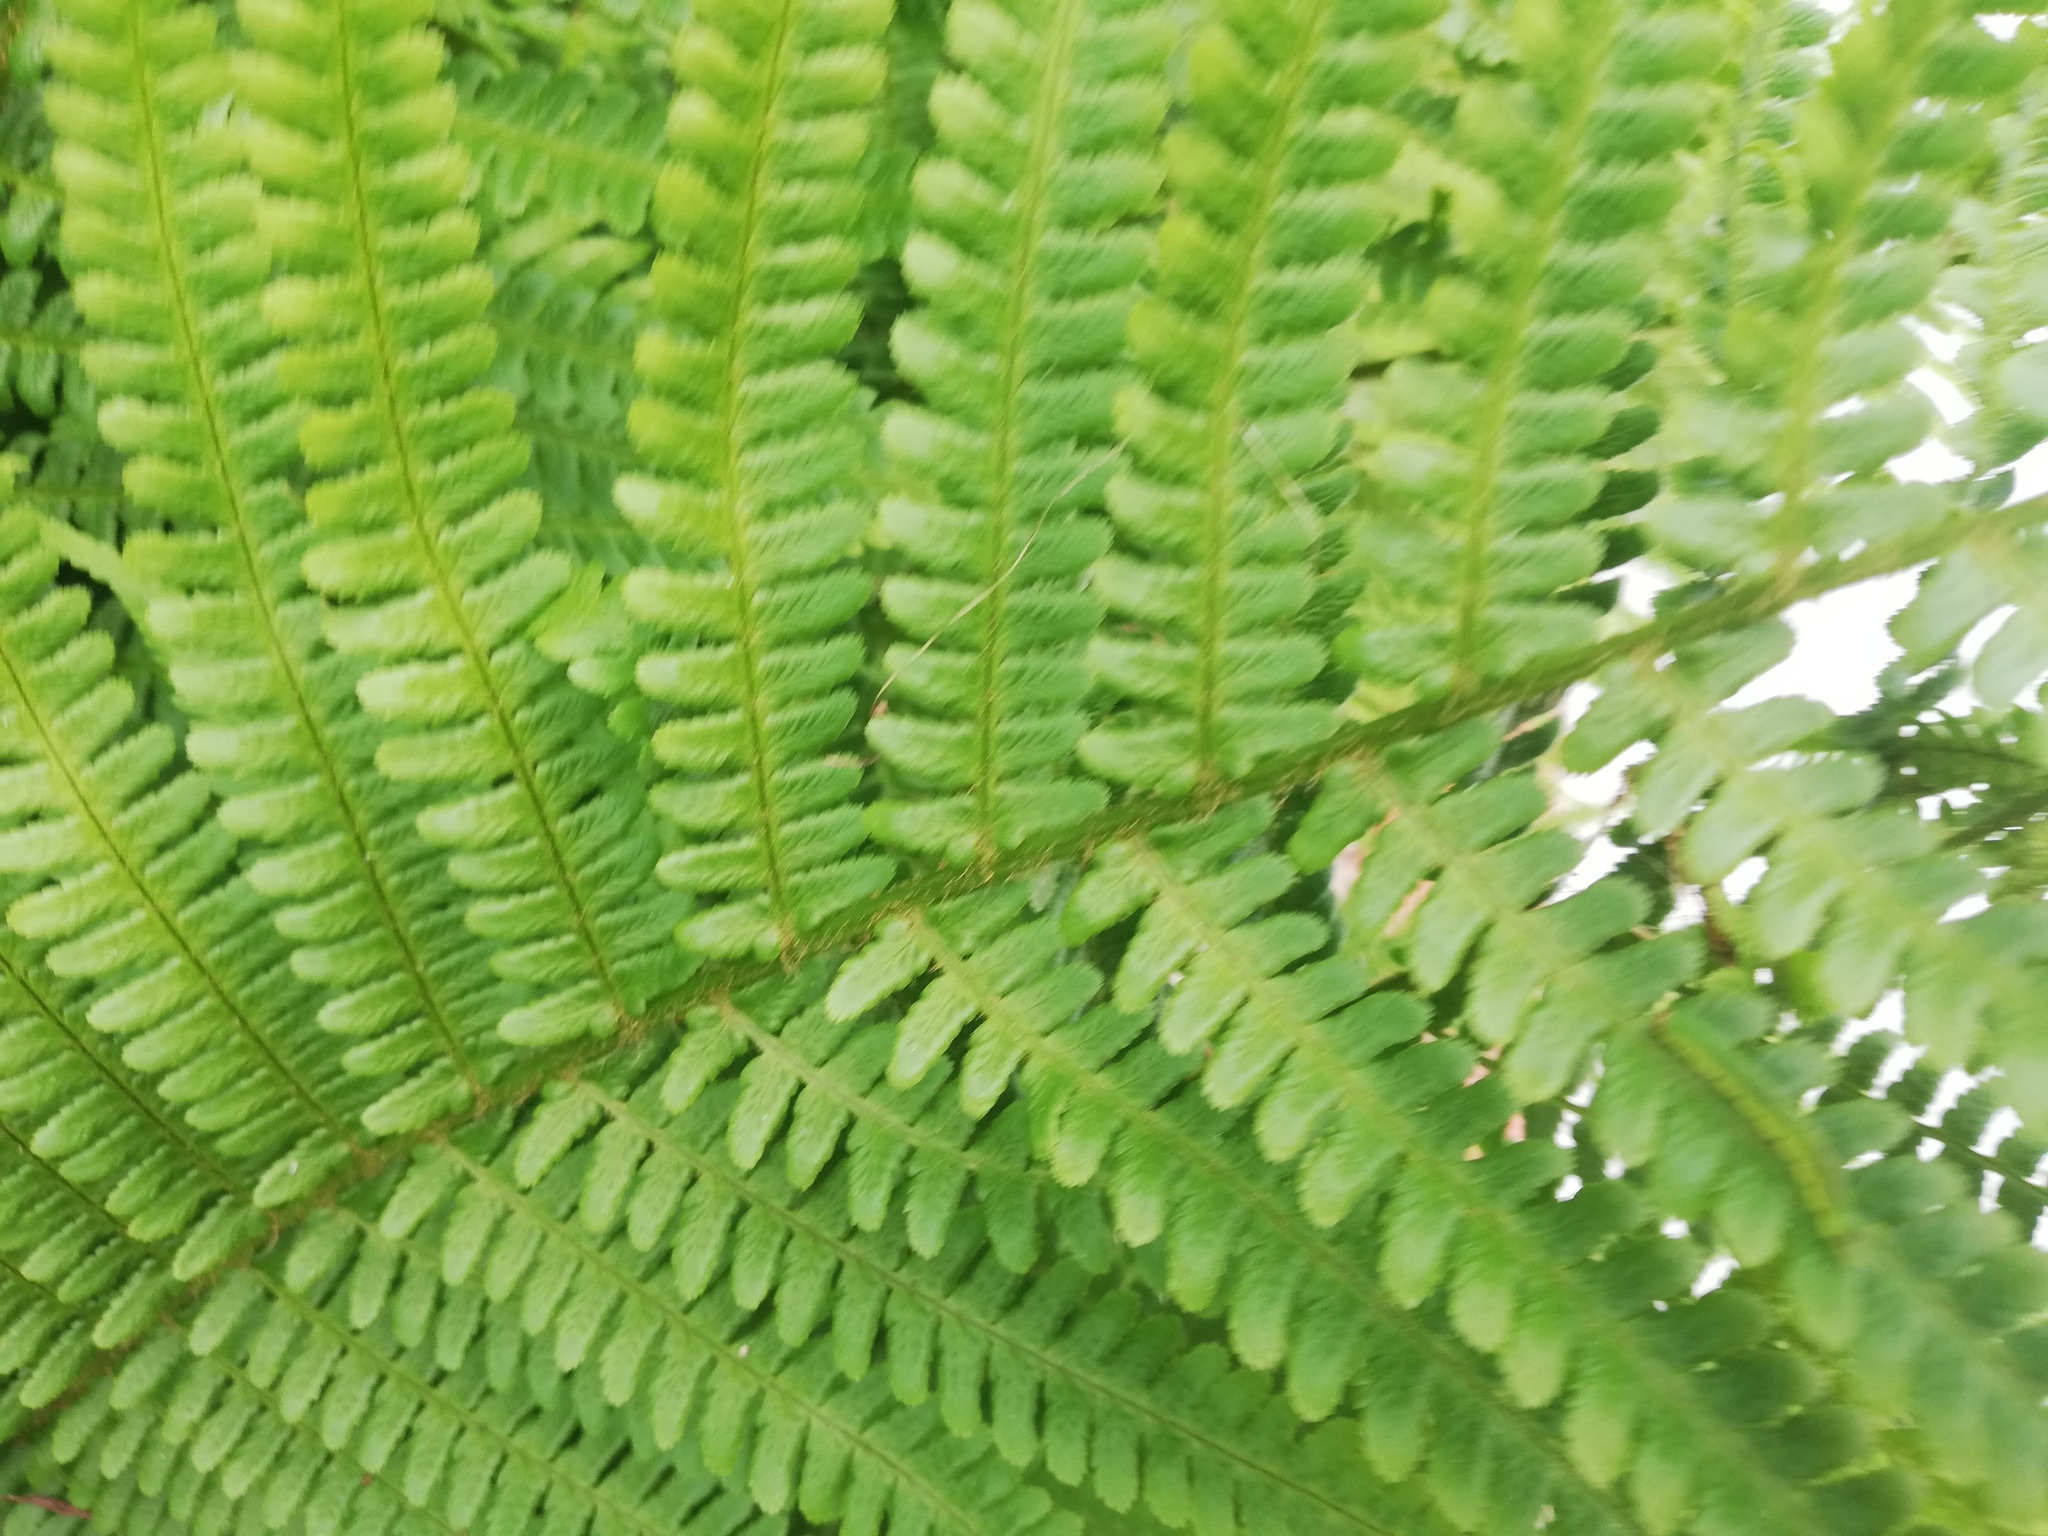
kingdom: Plantae
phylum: Tracheophyta
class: Polypodiopsida
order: Polypodiales
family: Dryopteridaceae
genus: Dryopteris
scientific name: Dryopteris filix-mas
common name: Male fern
